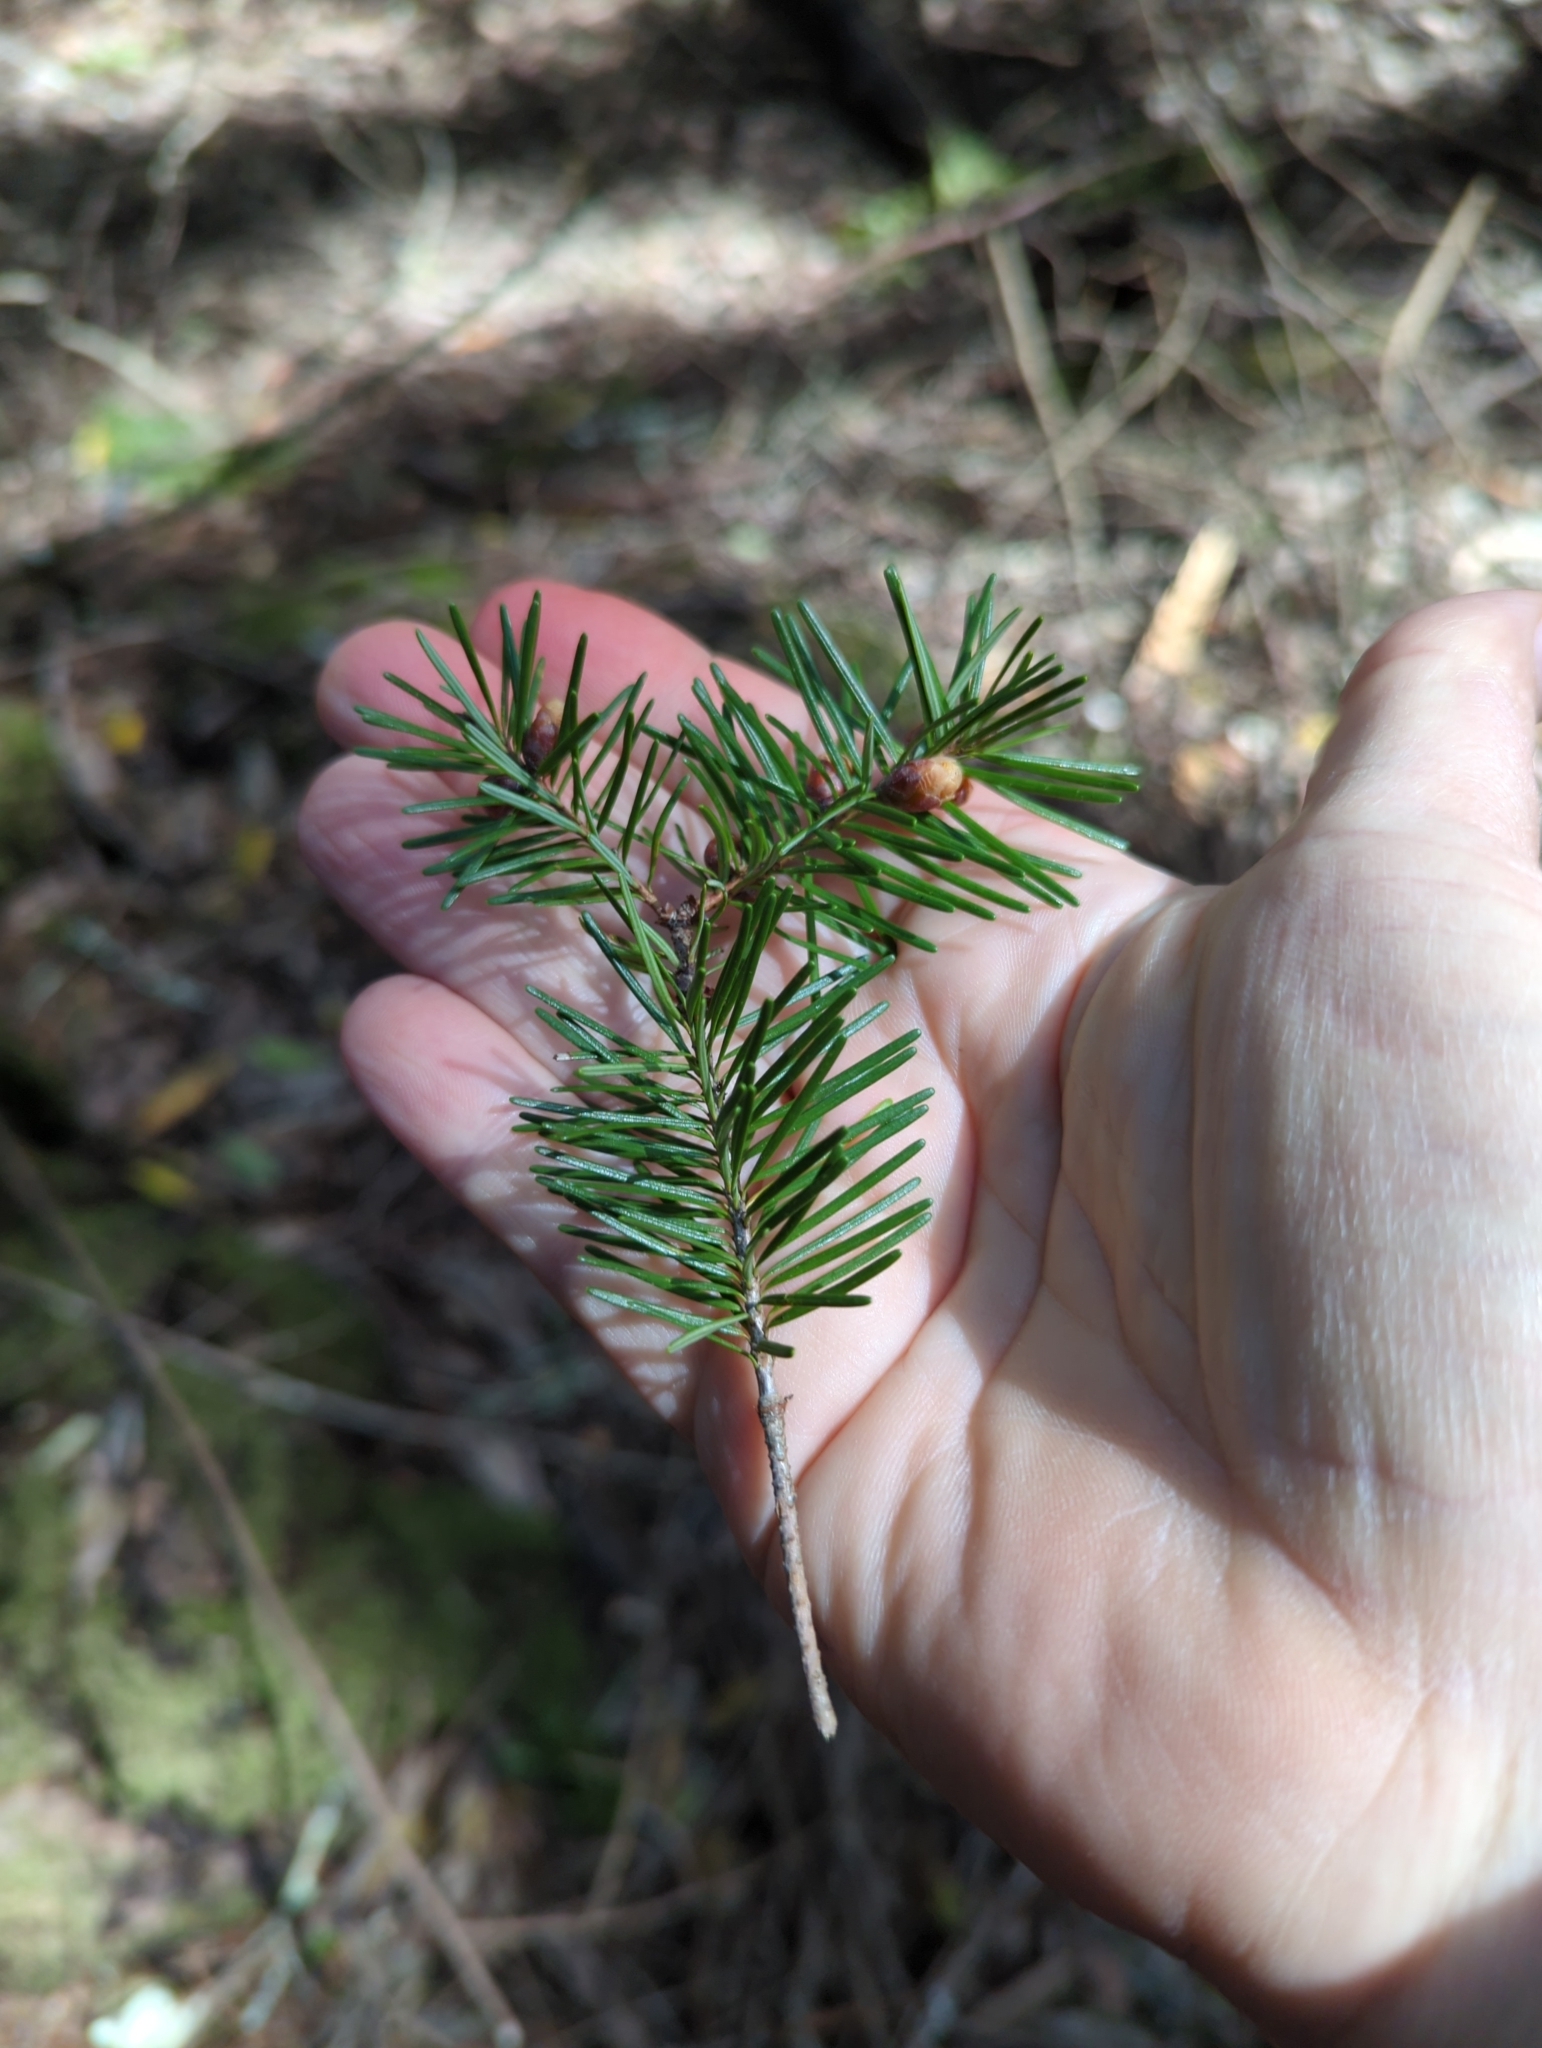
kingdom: Plantae
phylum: Tracheophyta
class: Pinopsida
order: Pinales
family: Pinaceae
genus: Pseudotsuga
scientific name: Pseudotsuga menziesii
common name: Douglas fir
